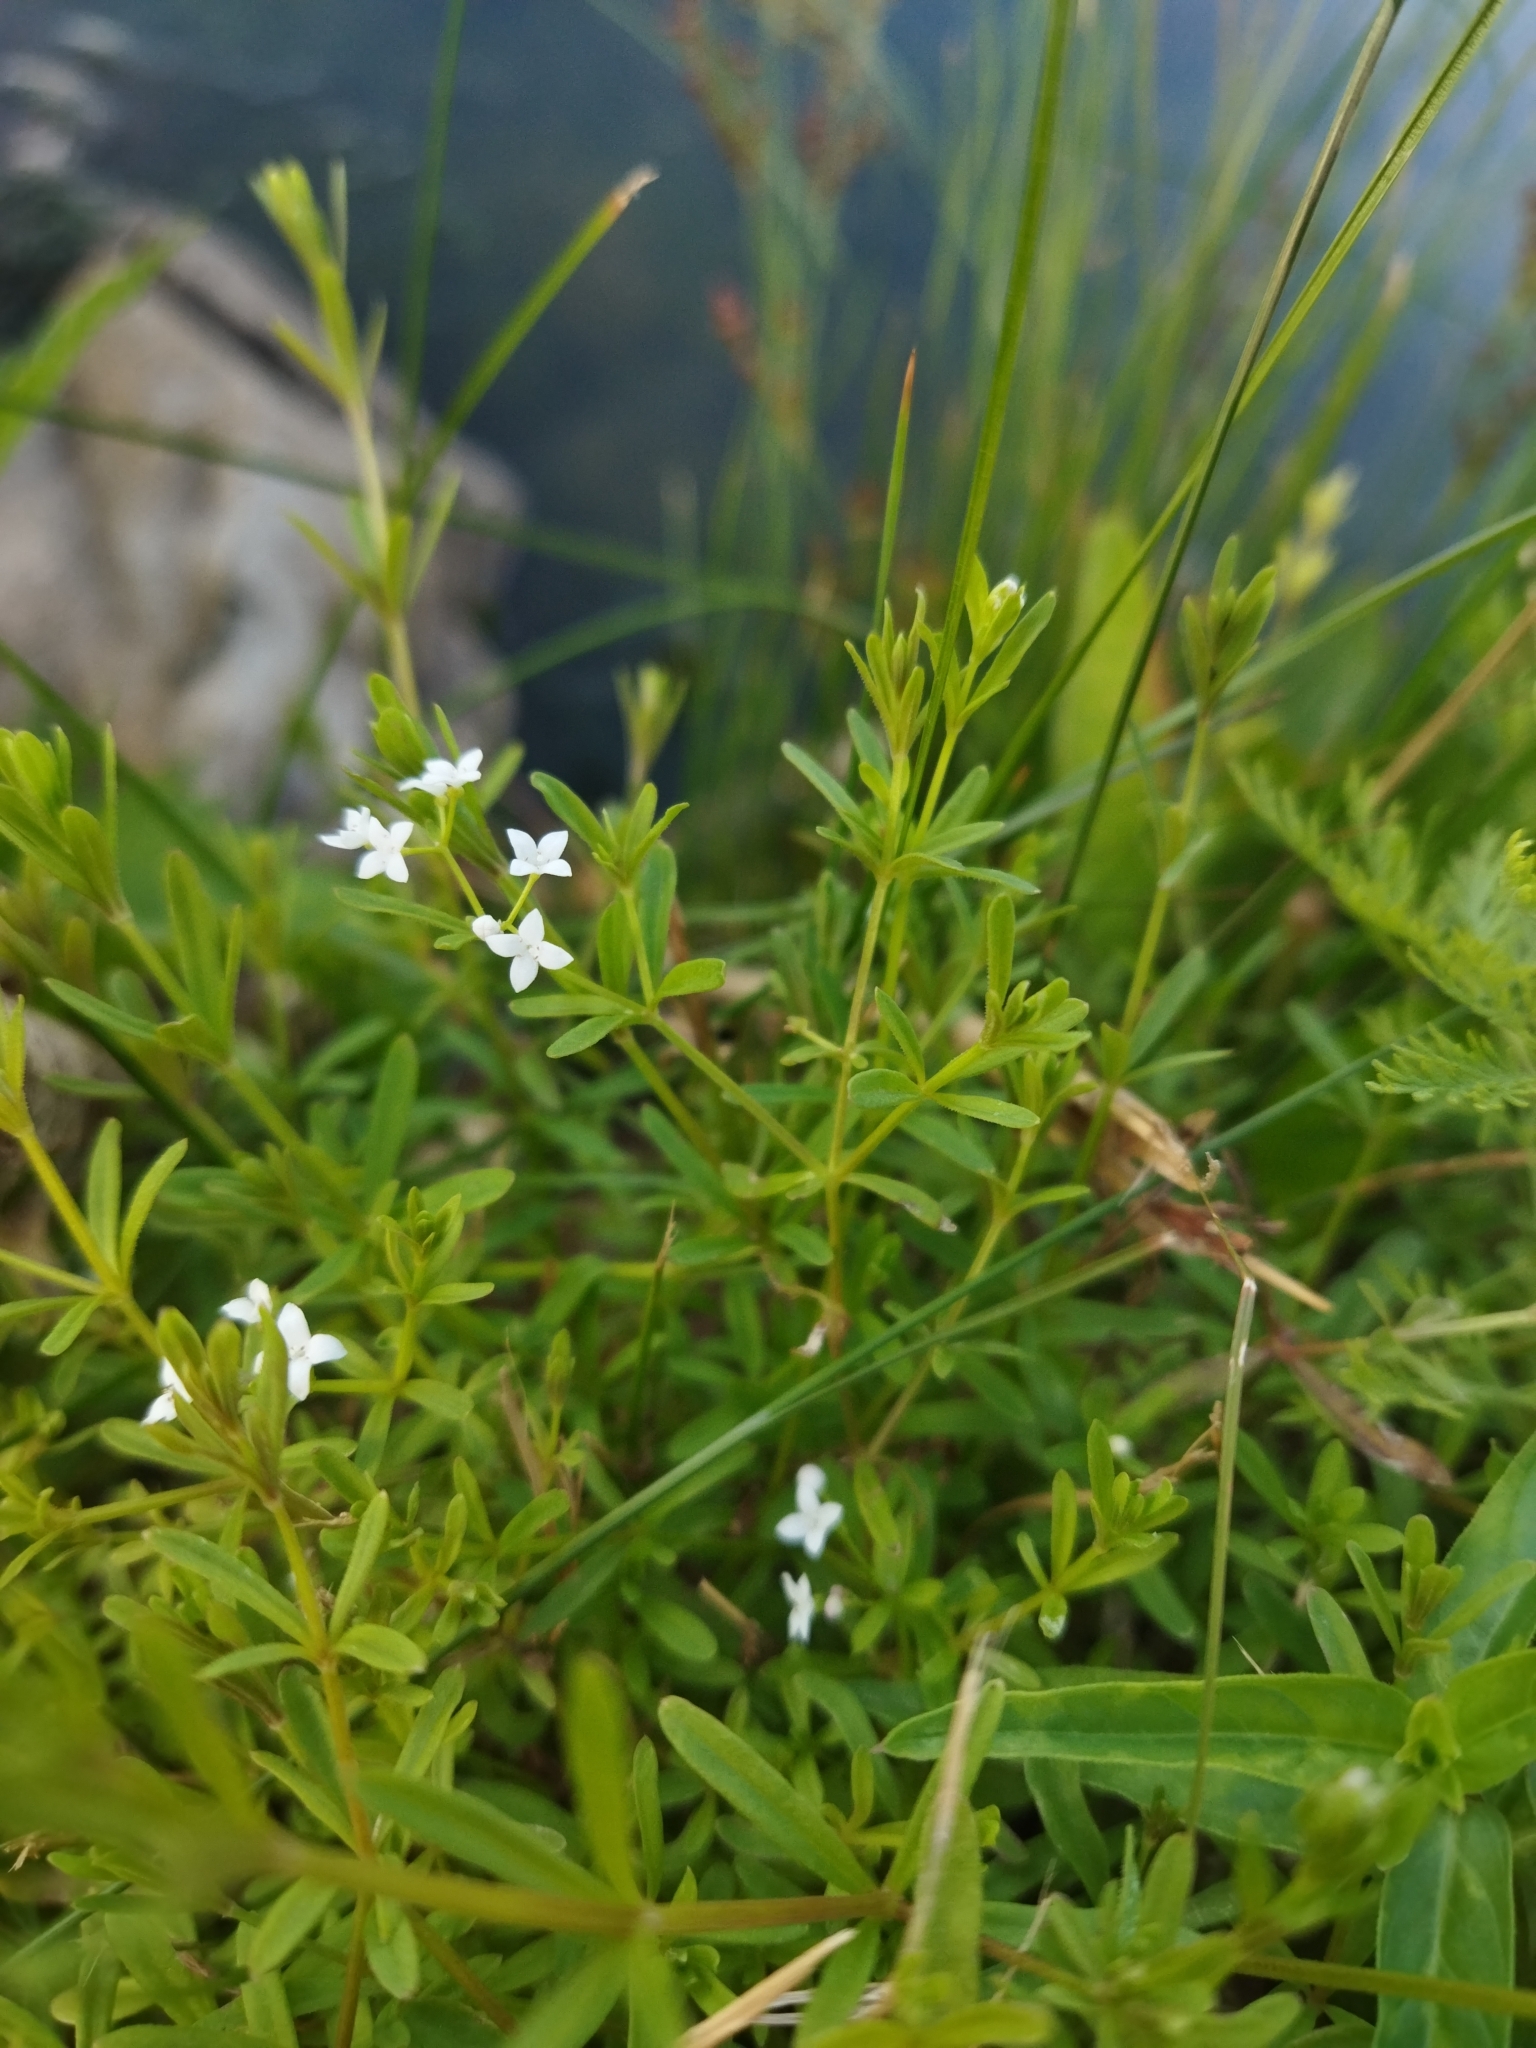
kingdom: Plantae
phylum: Tracheophyta
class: Magnoliopsida
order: Gentianales
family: Rubiaceae
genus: Galium
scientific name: Galium palustre
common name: Common marsh-bedstraw
